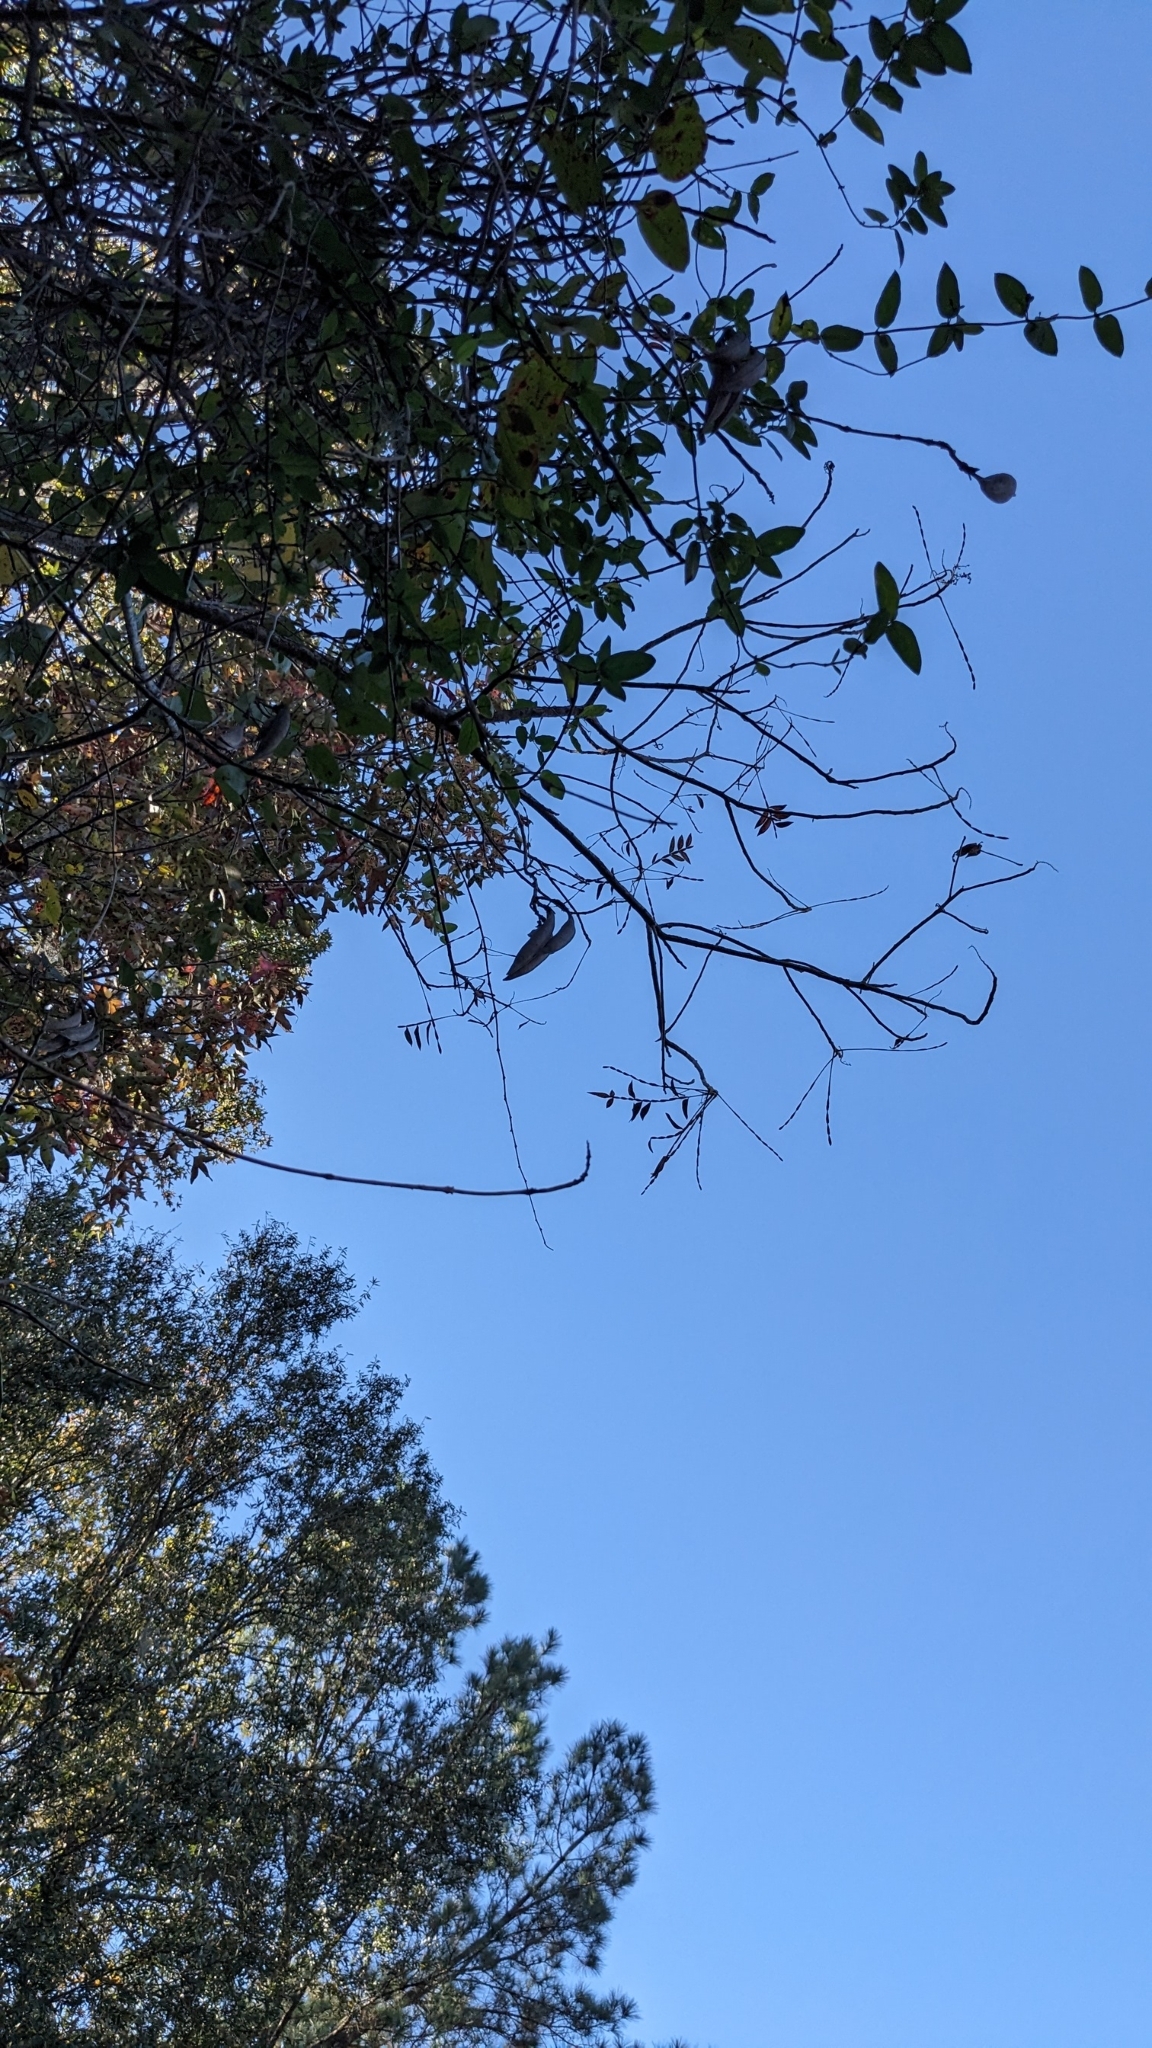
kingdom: Plantae
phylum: Tracheophyta
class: Magnoliopsida
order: Lamiales
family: Bignoniaceae
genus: Campsis
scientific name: Campsis radicans
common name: Trumpet-creeper
